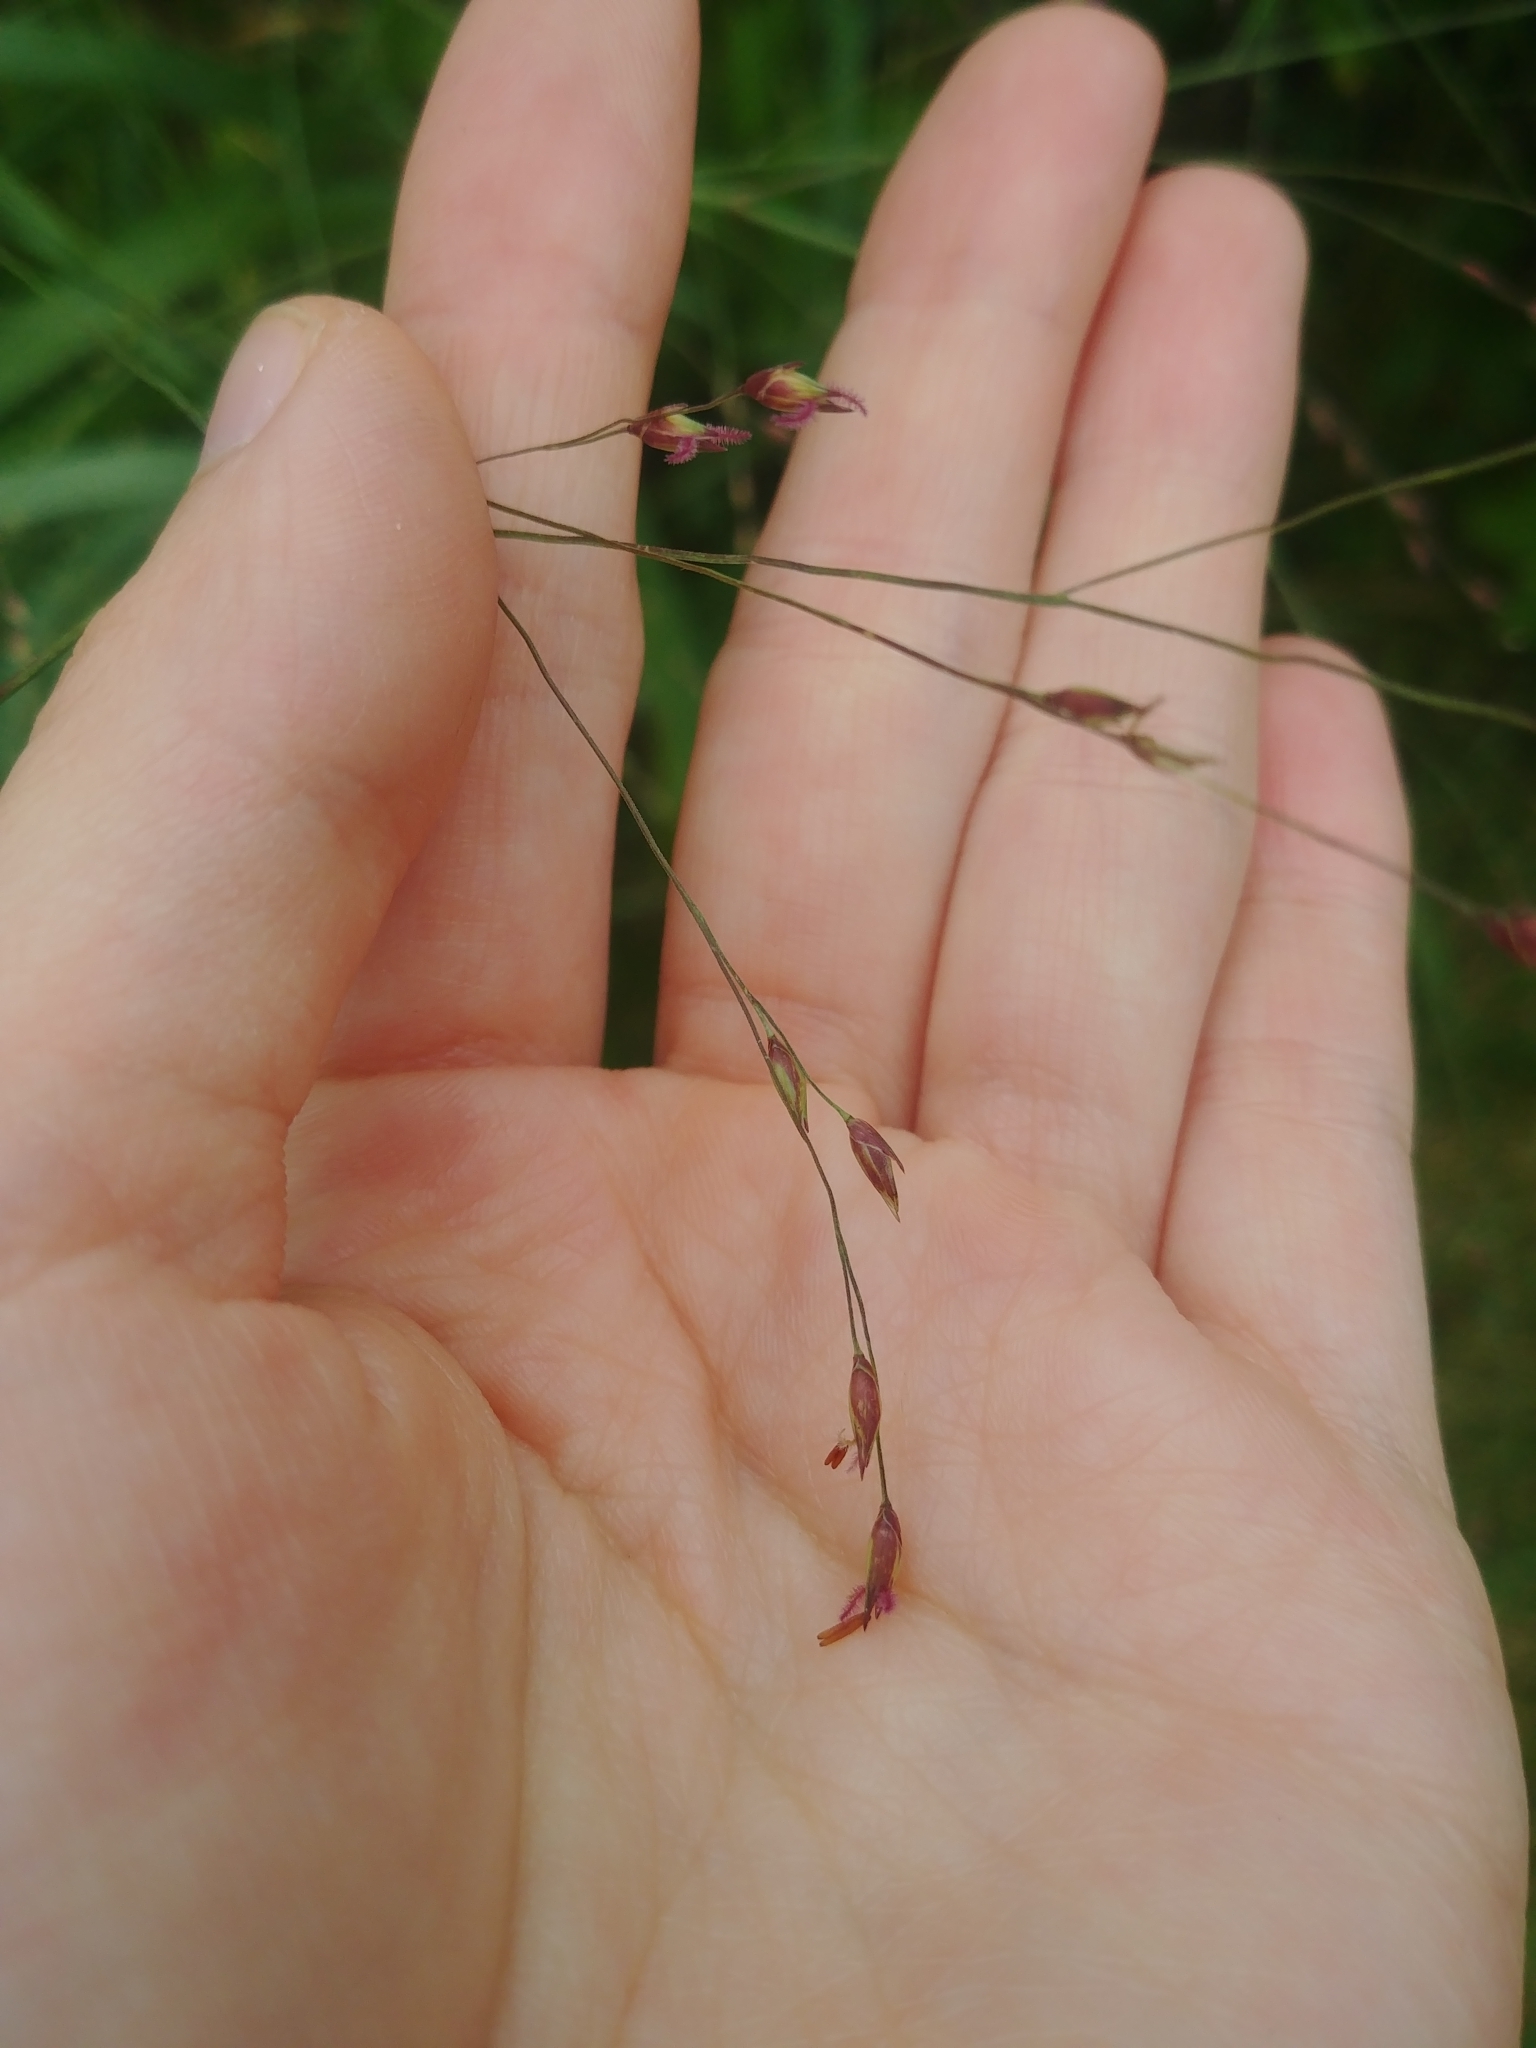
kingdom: Plantae
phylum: Tracheophyta
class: Liliopsida
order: Poales
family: Poaceae
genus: Panicum
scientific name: Panicum virgatum
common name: Switchgrass
